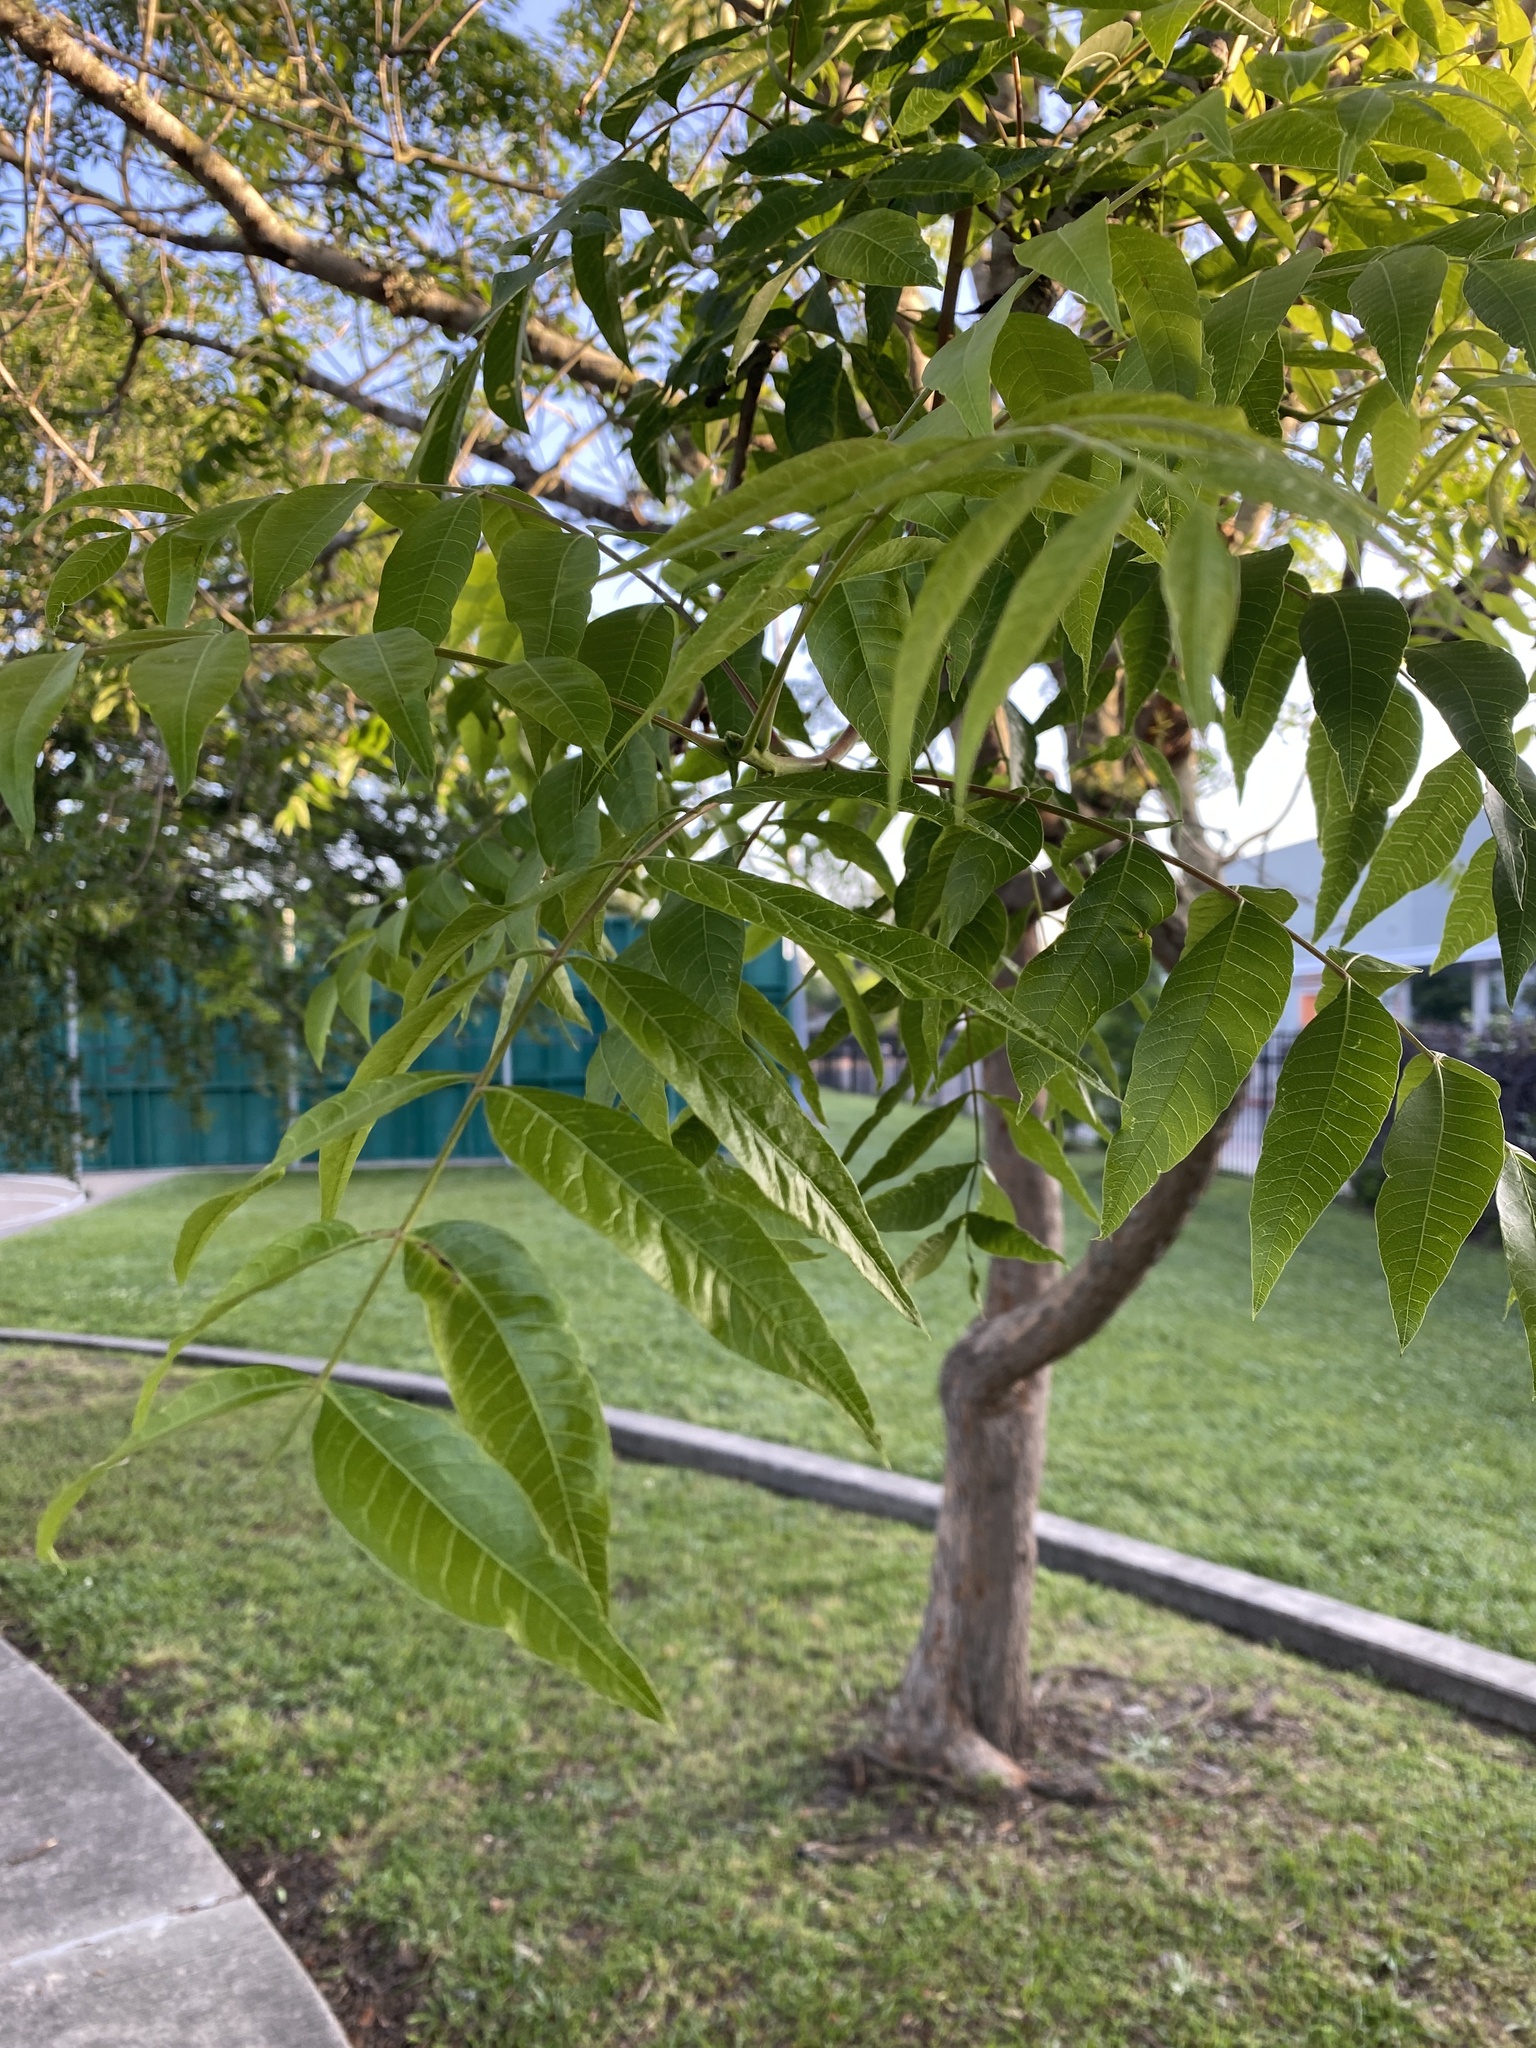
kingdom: Plantae
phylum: Tracheophyta
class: Magnoliopsida
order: Sapindales
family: Anacardiaceae
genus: Pistacia
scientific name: Pistacia chinensis
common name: Chinese pistache
